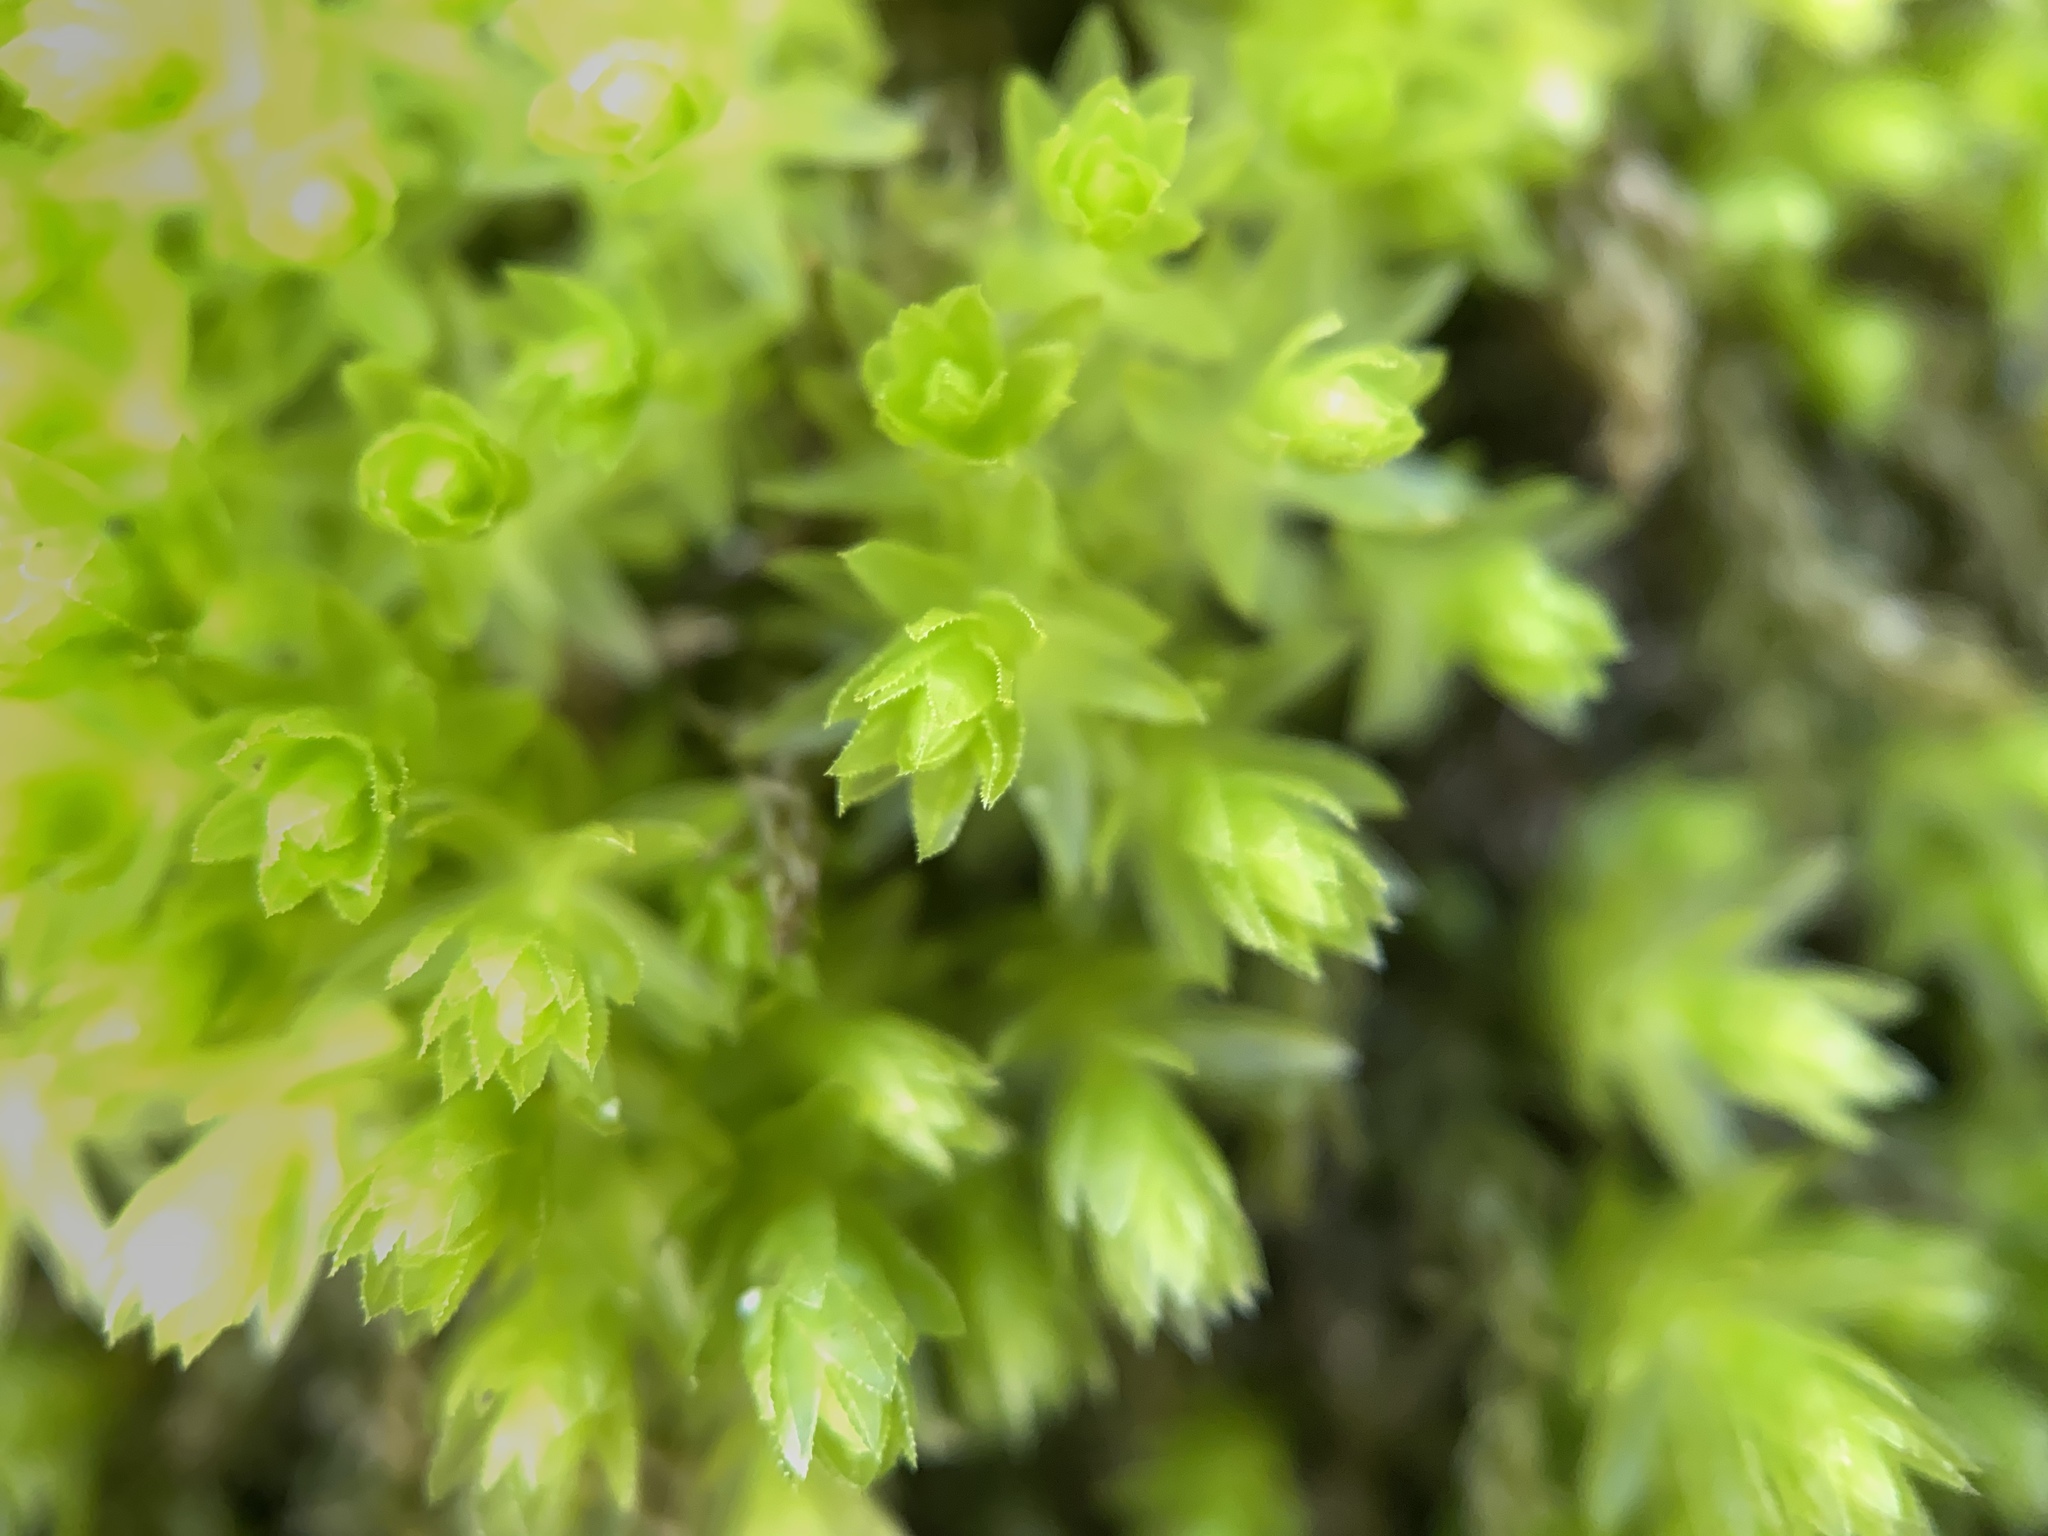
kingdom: Plantae
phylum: Bryophyta
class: Bryopsida
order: Bryales
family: Mniaceae
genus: Mnium
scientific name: Mnium hornum
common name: Swan's-neck leafy moss
